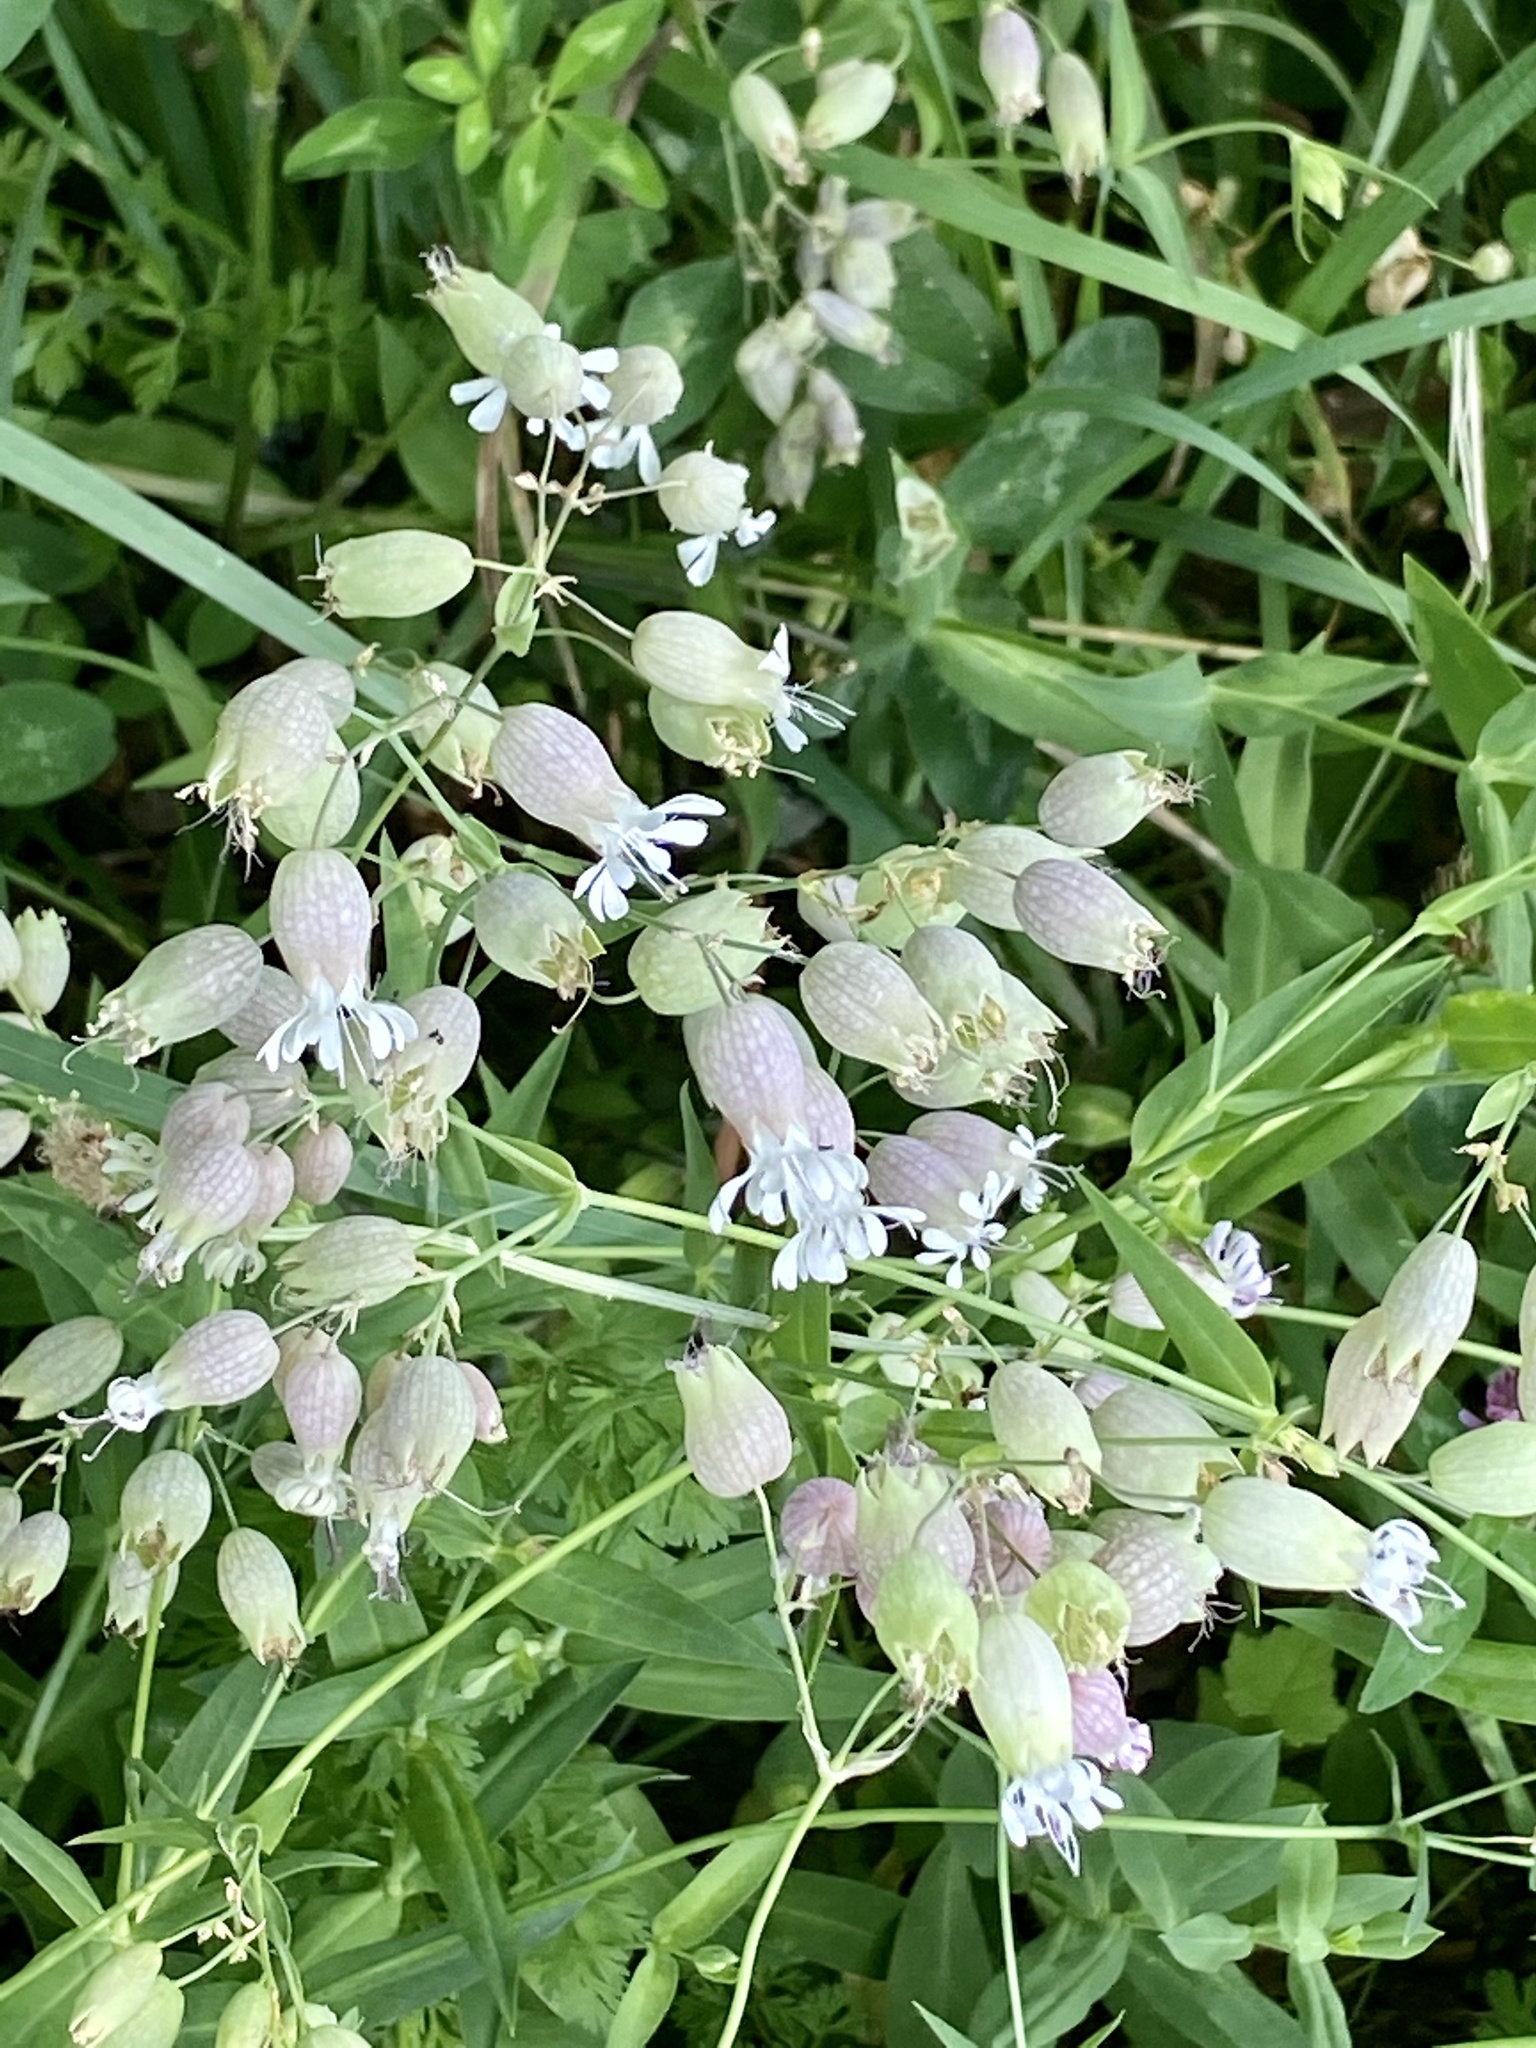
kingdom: Plantae
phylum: Tracheophyta
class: Magnoliopsida
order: Caryophyllales
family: Caryophyllaceae
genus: Silene
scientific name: Silene vulgaris
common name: Bladder campion
